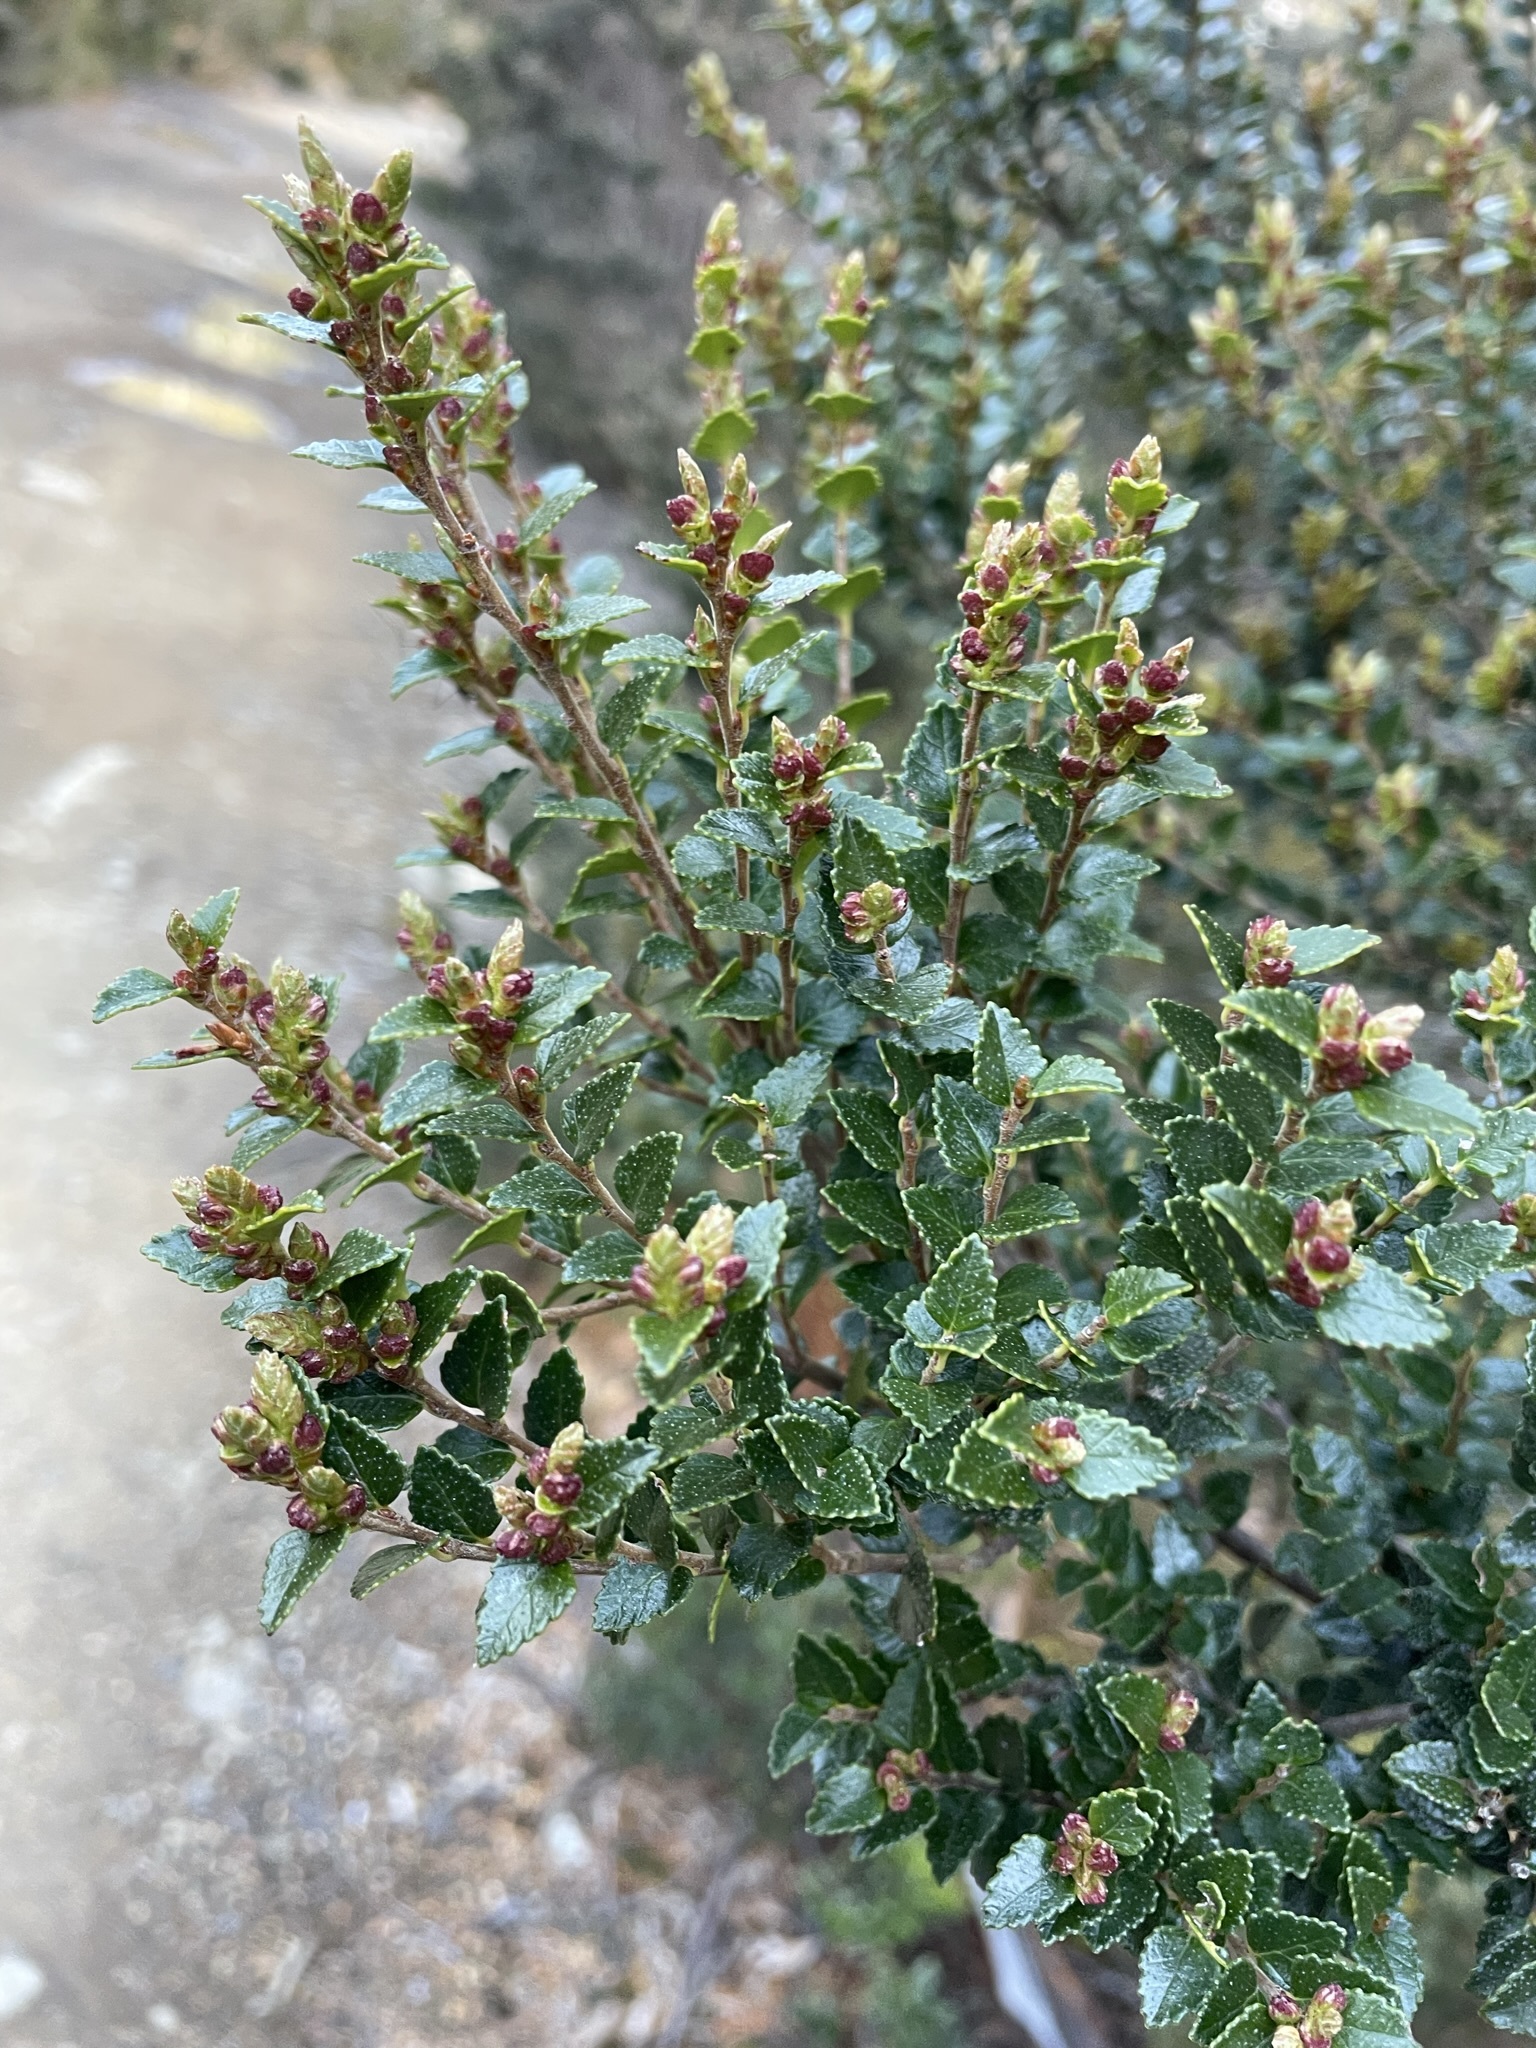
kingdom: Plantae
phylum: Tracheophyta
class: Magnoliopsida
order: Fagales
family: Nothofagaceae
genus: Nothofagus
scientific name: Nothofagus cunninghamii
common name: Myrtle beech
